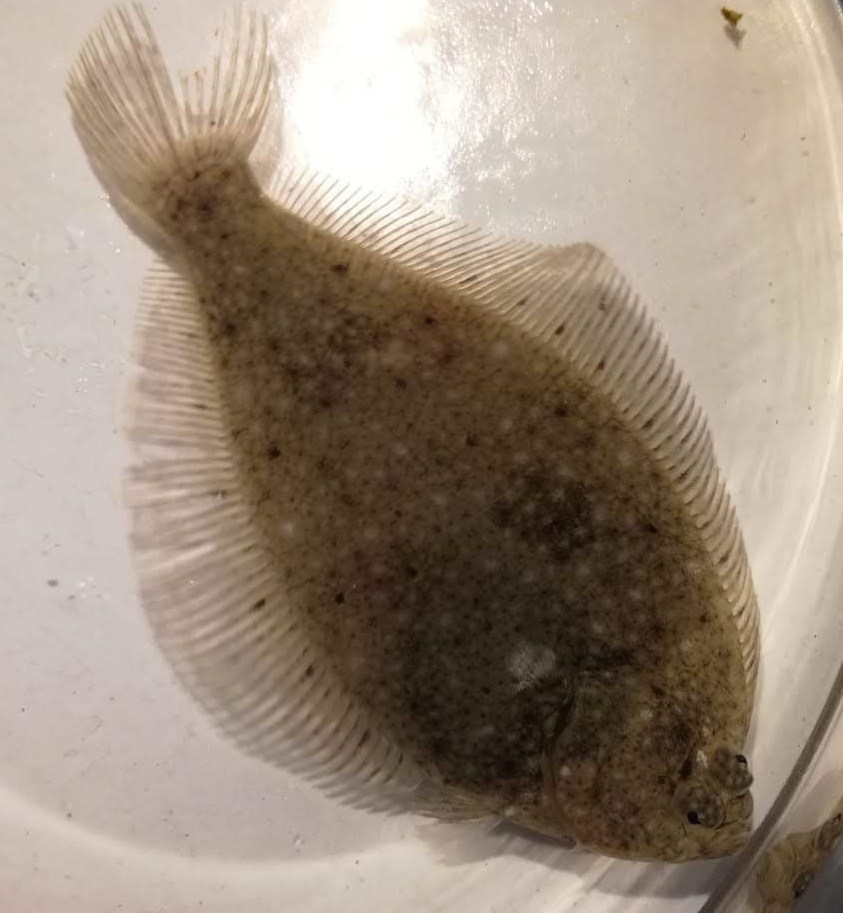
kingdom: Animalia
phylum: Chordata
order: Pleuronectiformes
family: Pleuronectidae
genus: Platichthys
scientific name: Platichthys flesus
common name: European flounder
